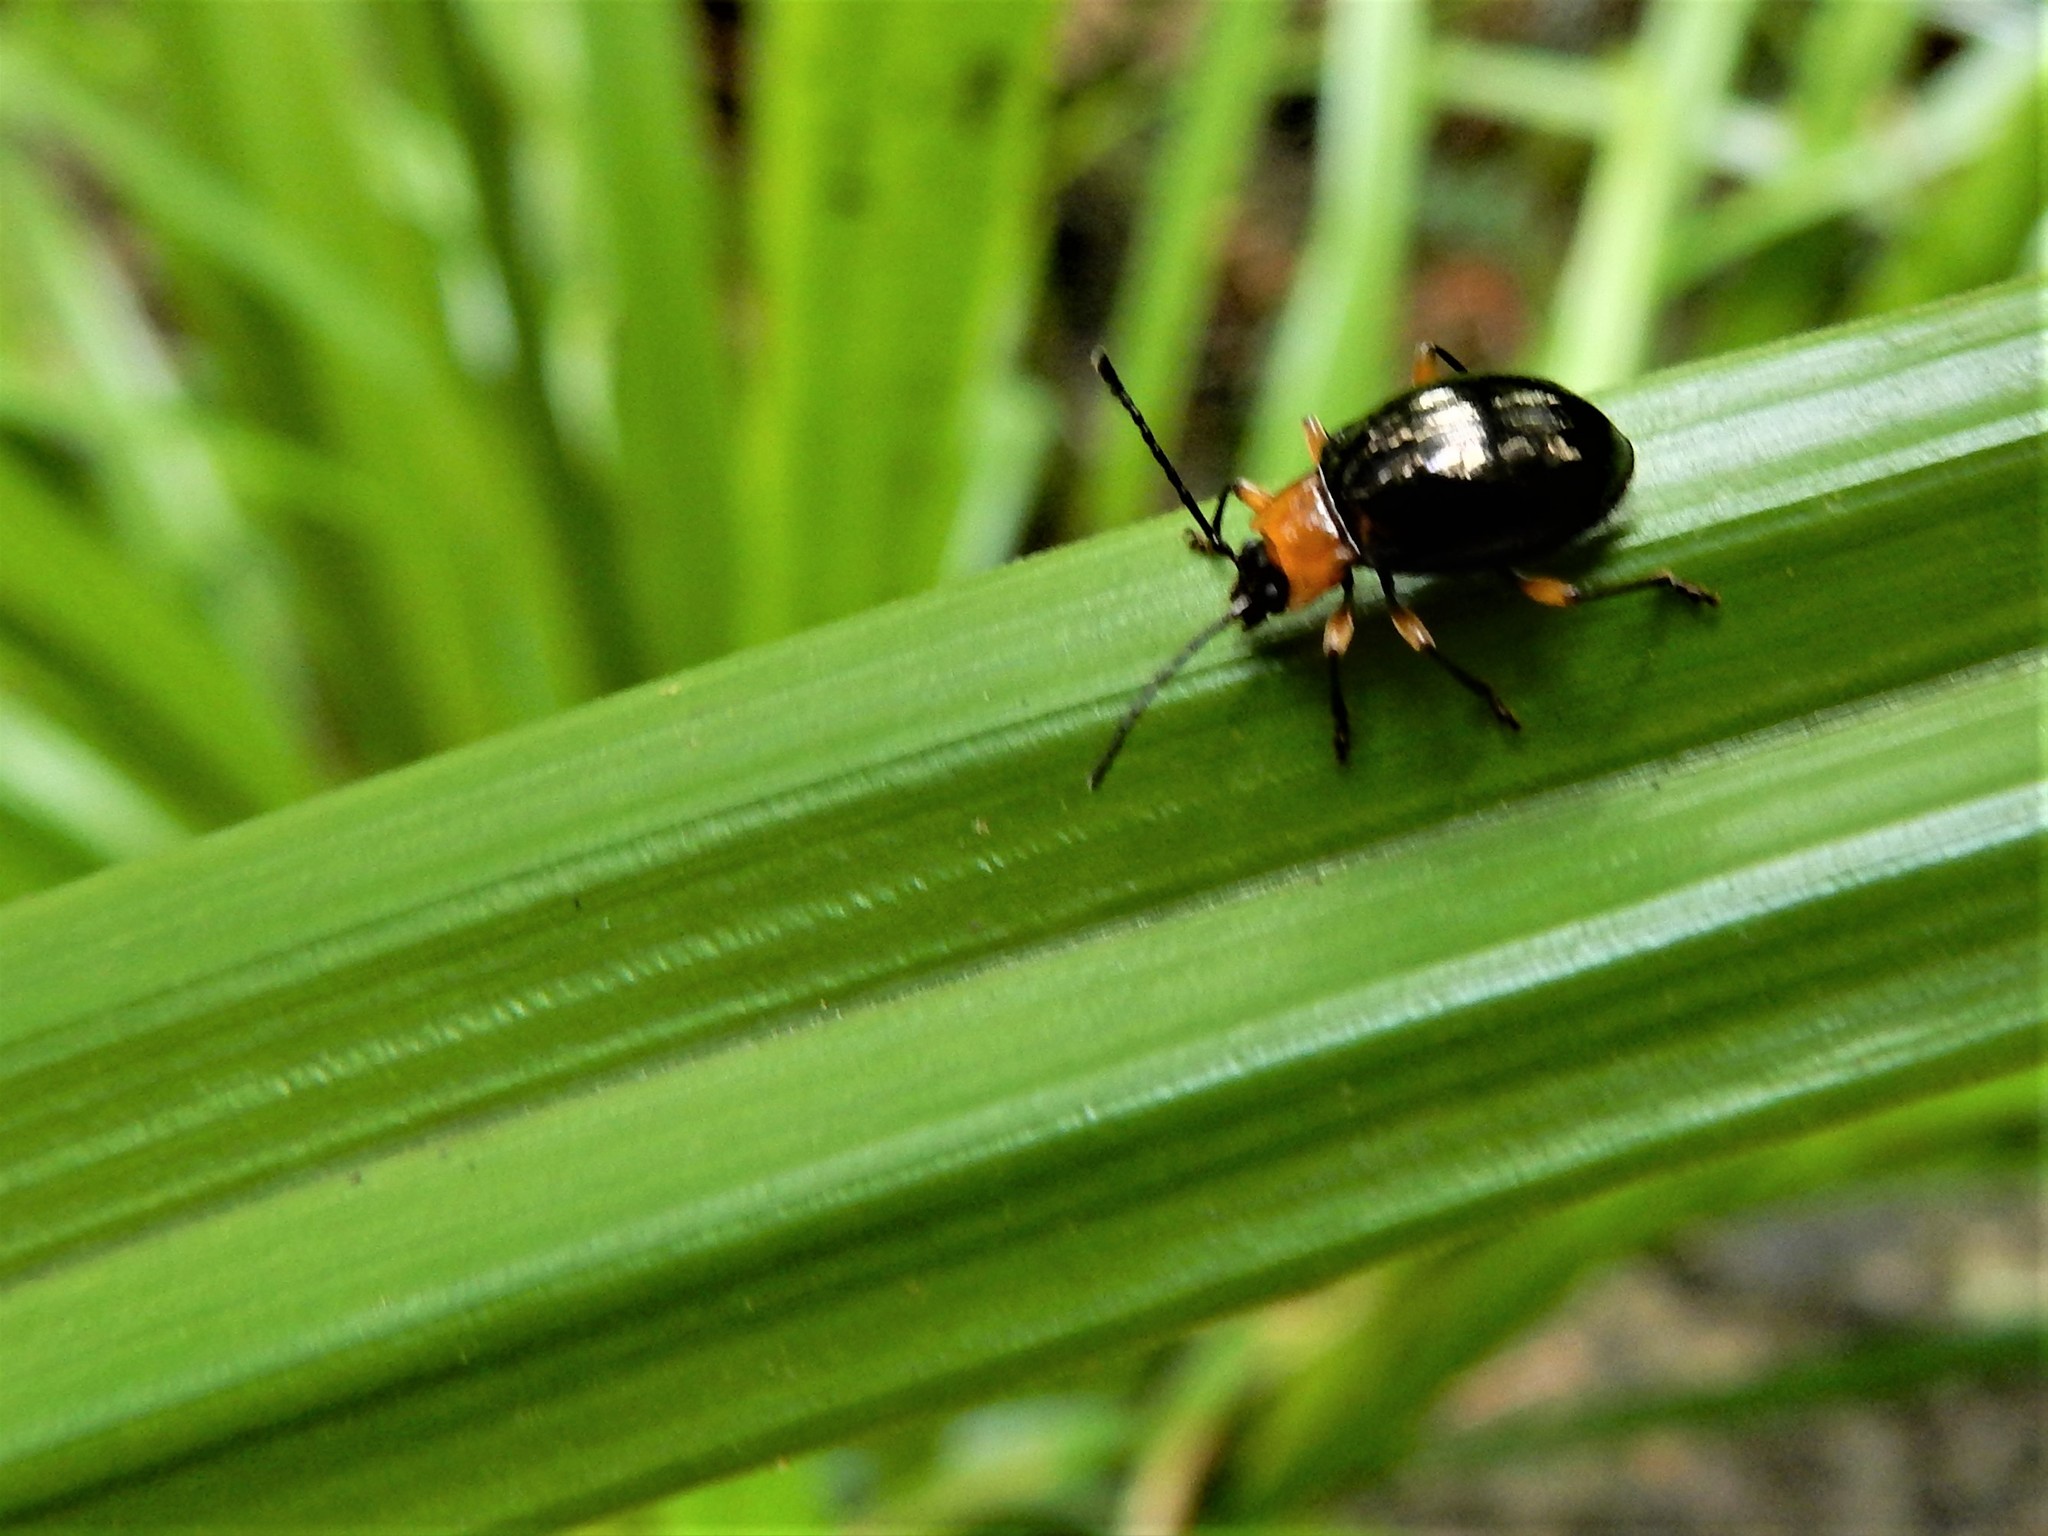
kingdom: Animalia
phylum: Arthropoda
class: Insecta
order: Coleoptera
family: Endomychidae
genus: Encymon
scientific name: Encymon
